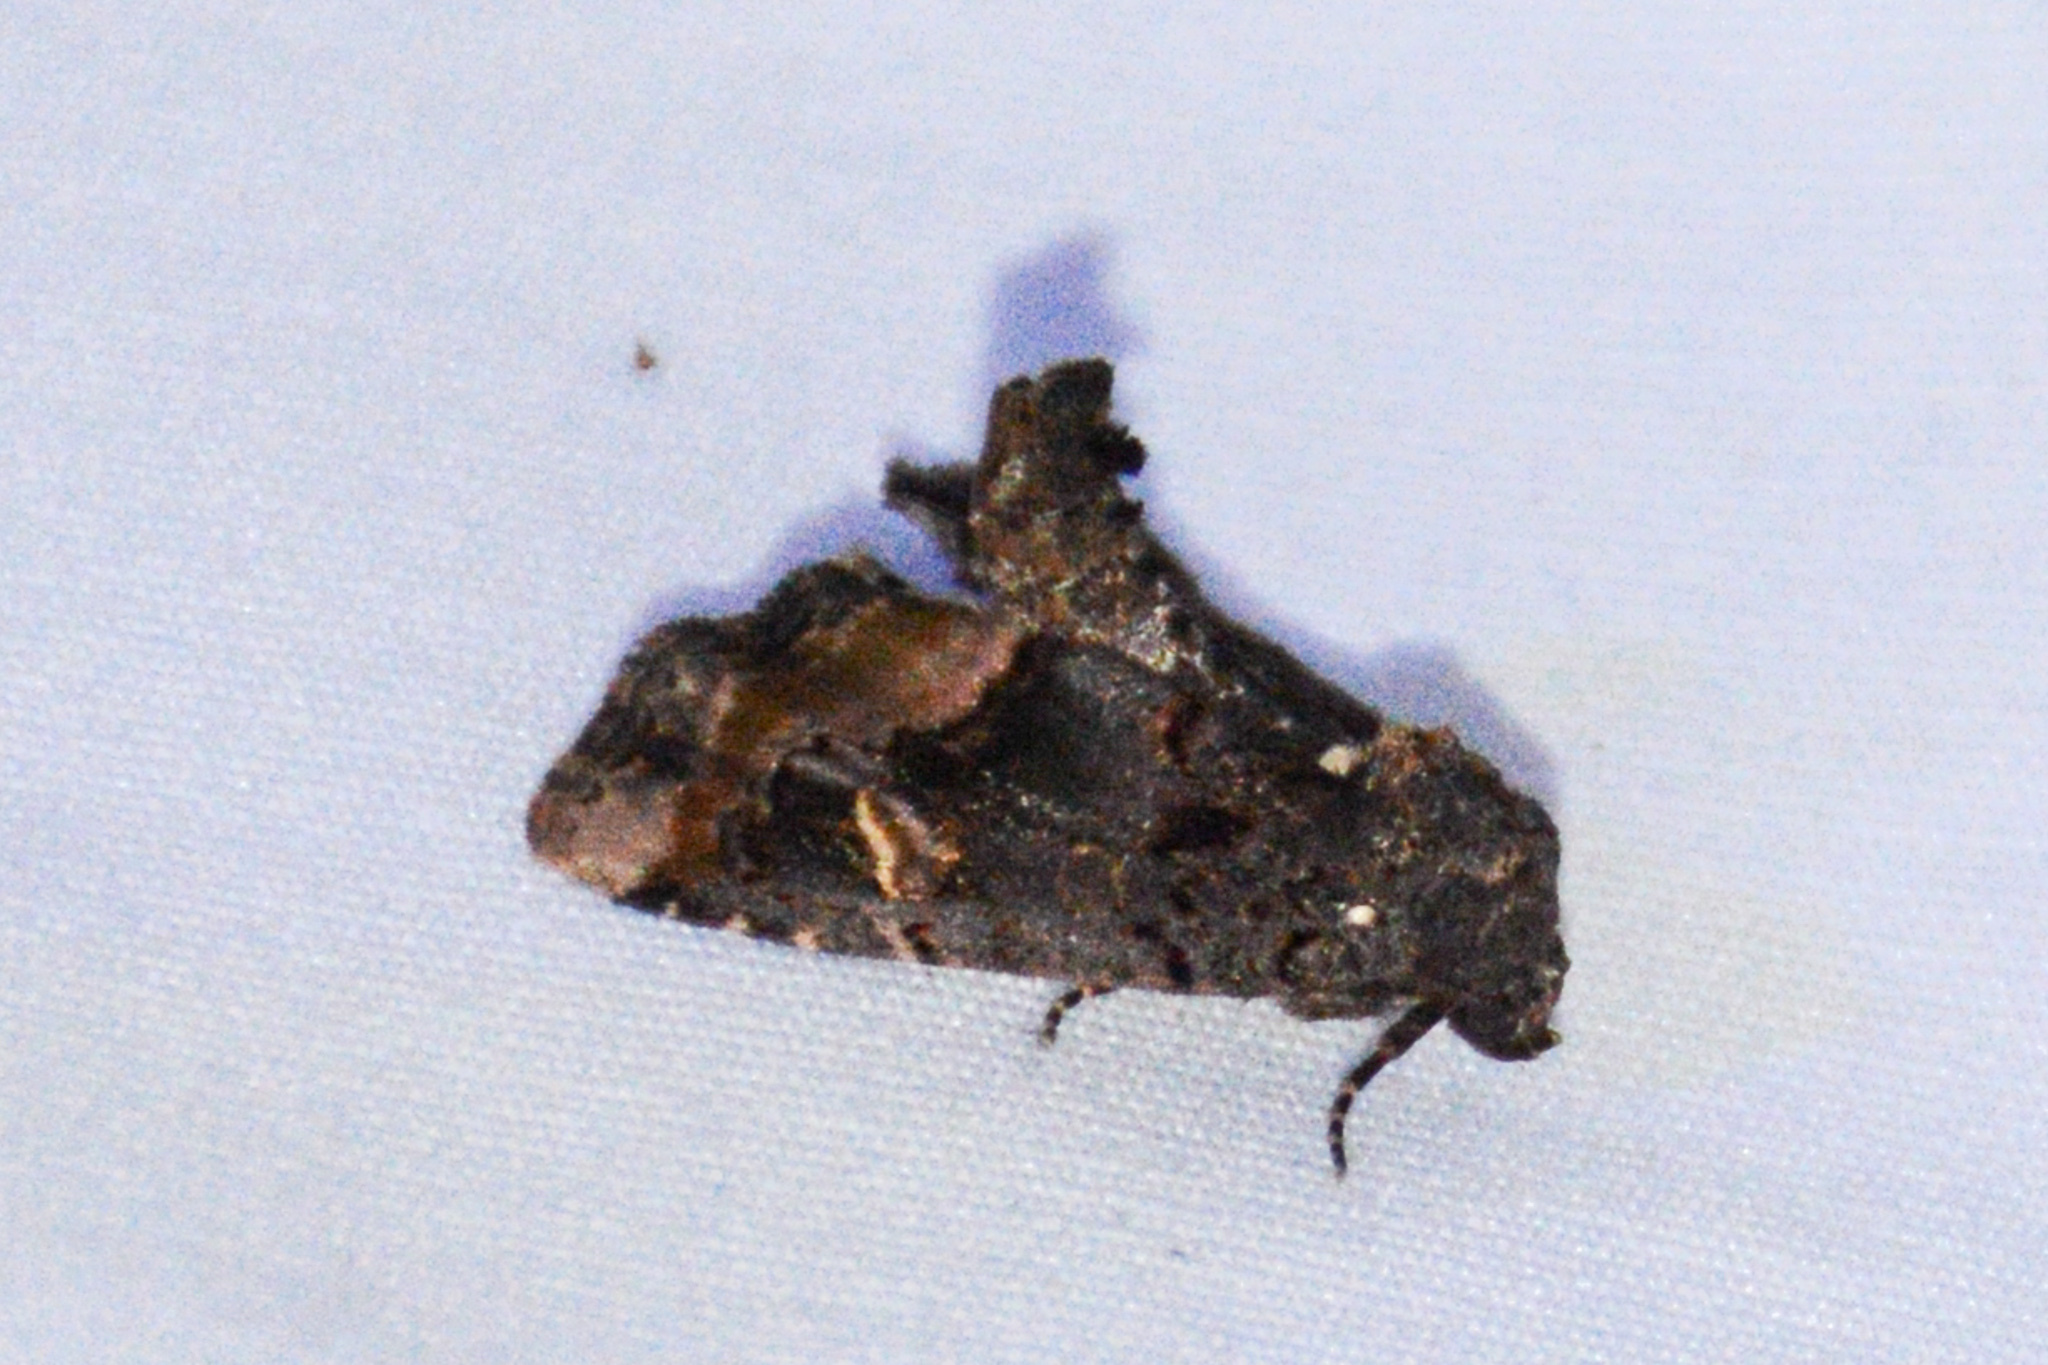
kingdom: Animalia
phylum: Arthropoda
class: Insecta
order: Lepidoptera
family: Noctuidae
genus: Homophoberia
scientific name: Homophoberia apicosa
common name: Black wedge-spot
